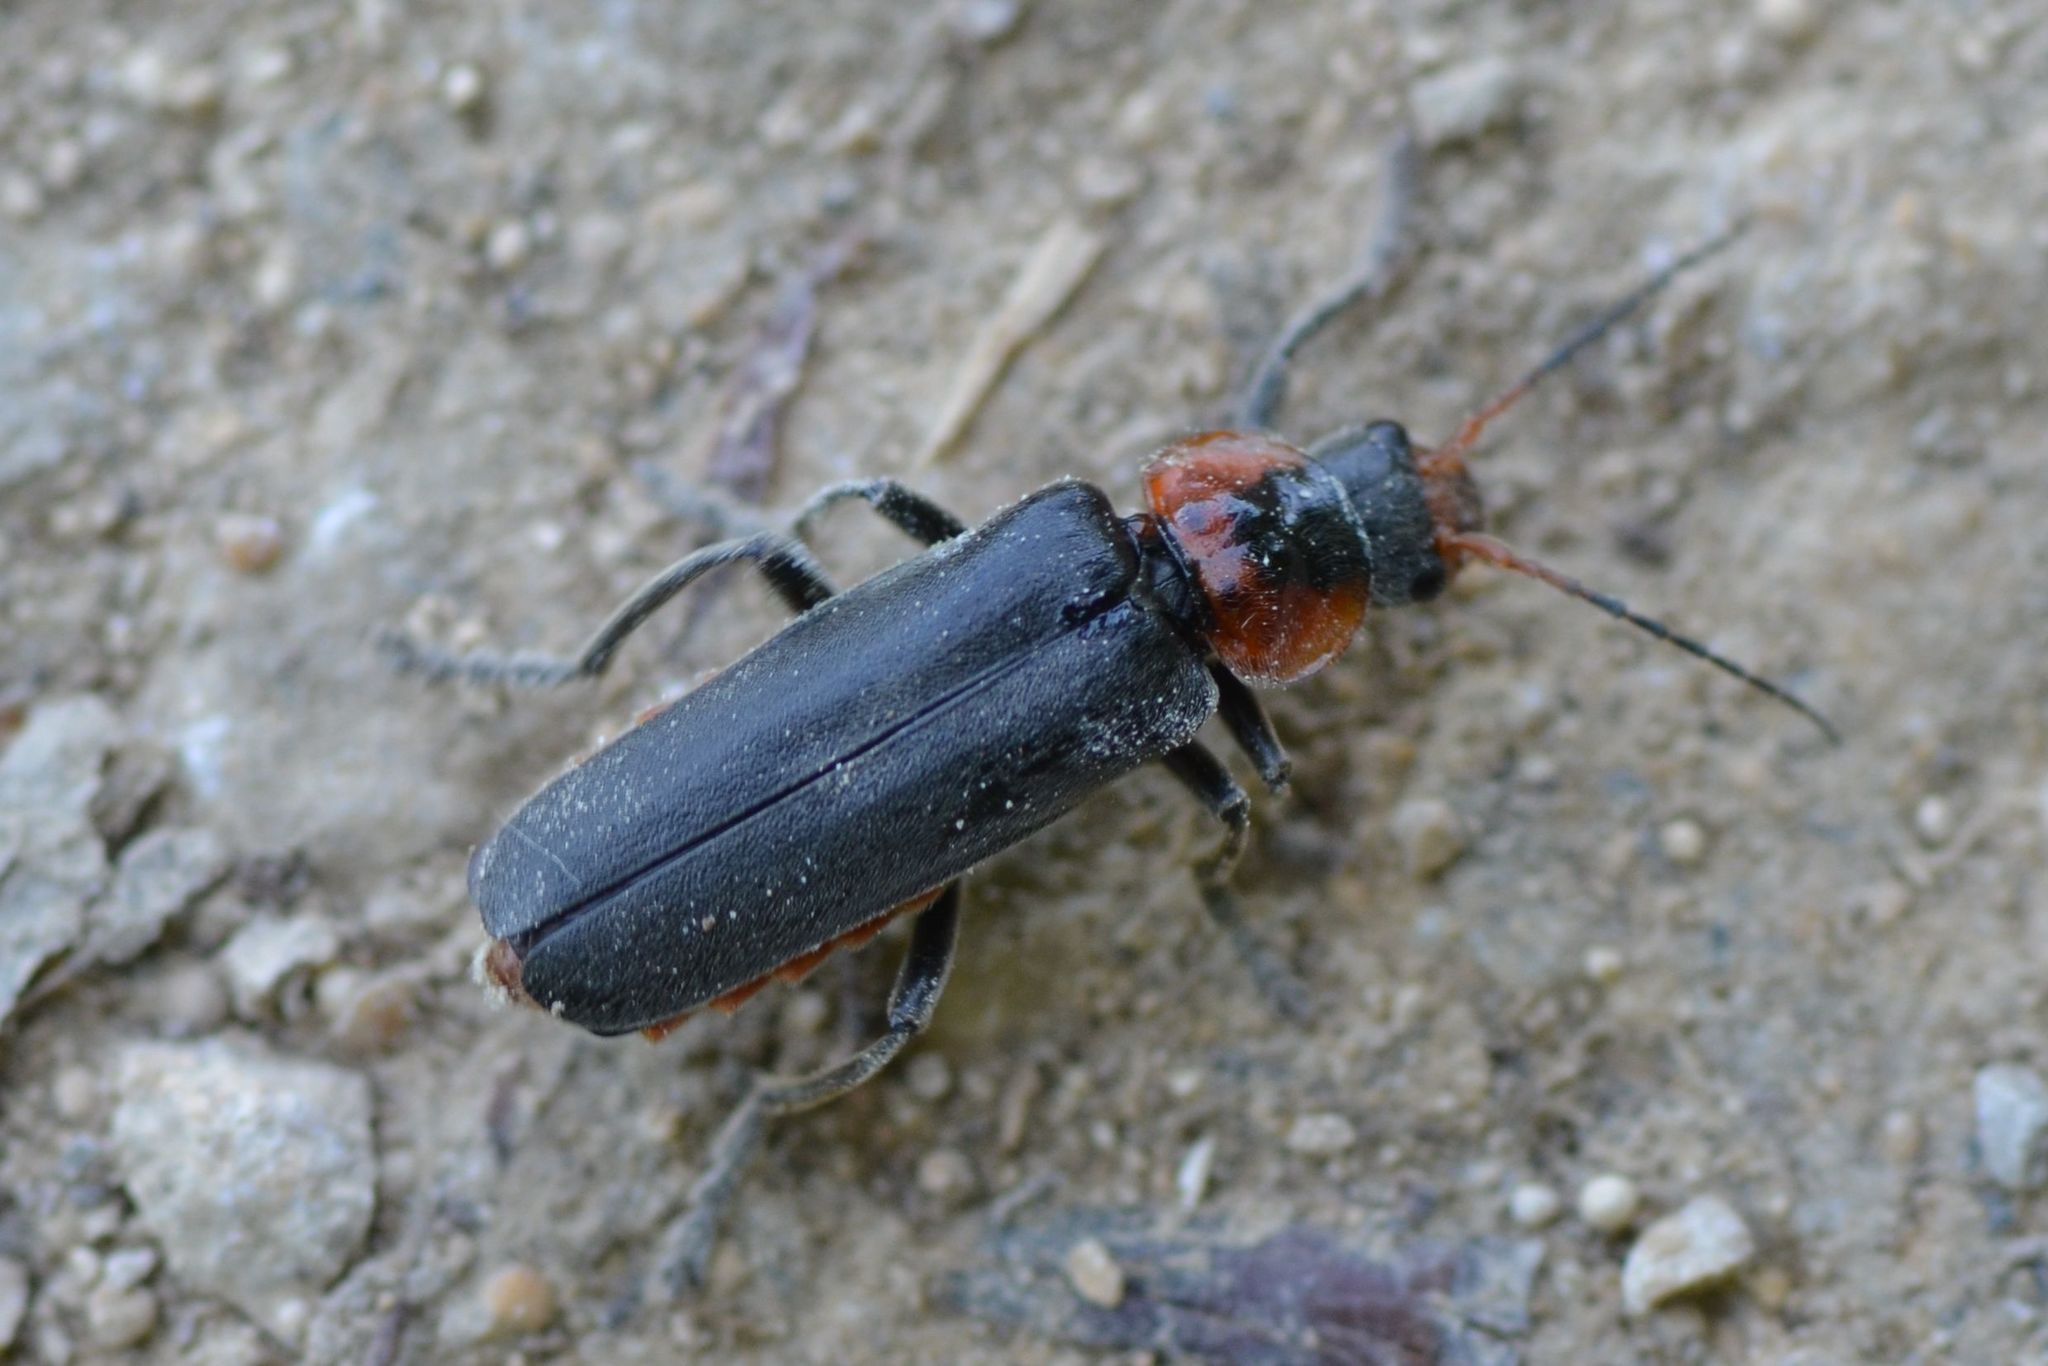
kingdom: Animalia
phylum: Arthropoda
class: Insecta
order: Coleoptera
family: Cantharidae
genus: Cantharis
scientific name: Cantharis fusca
